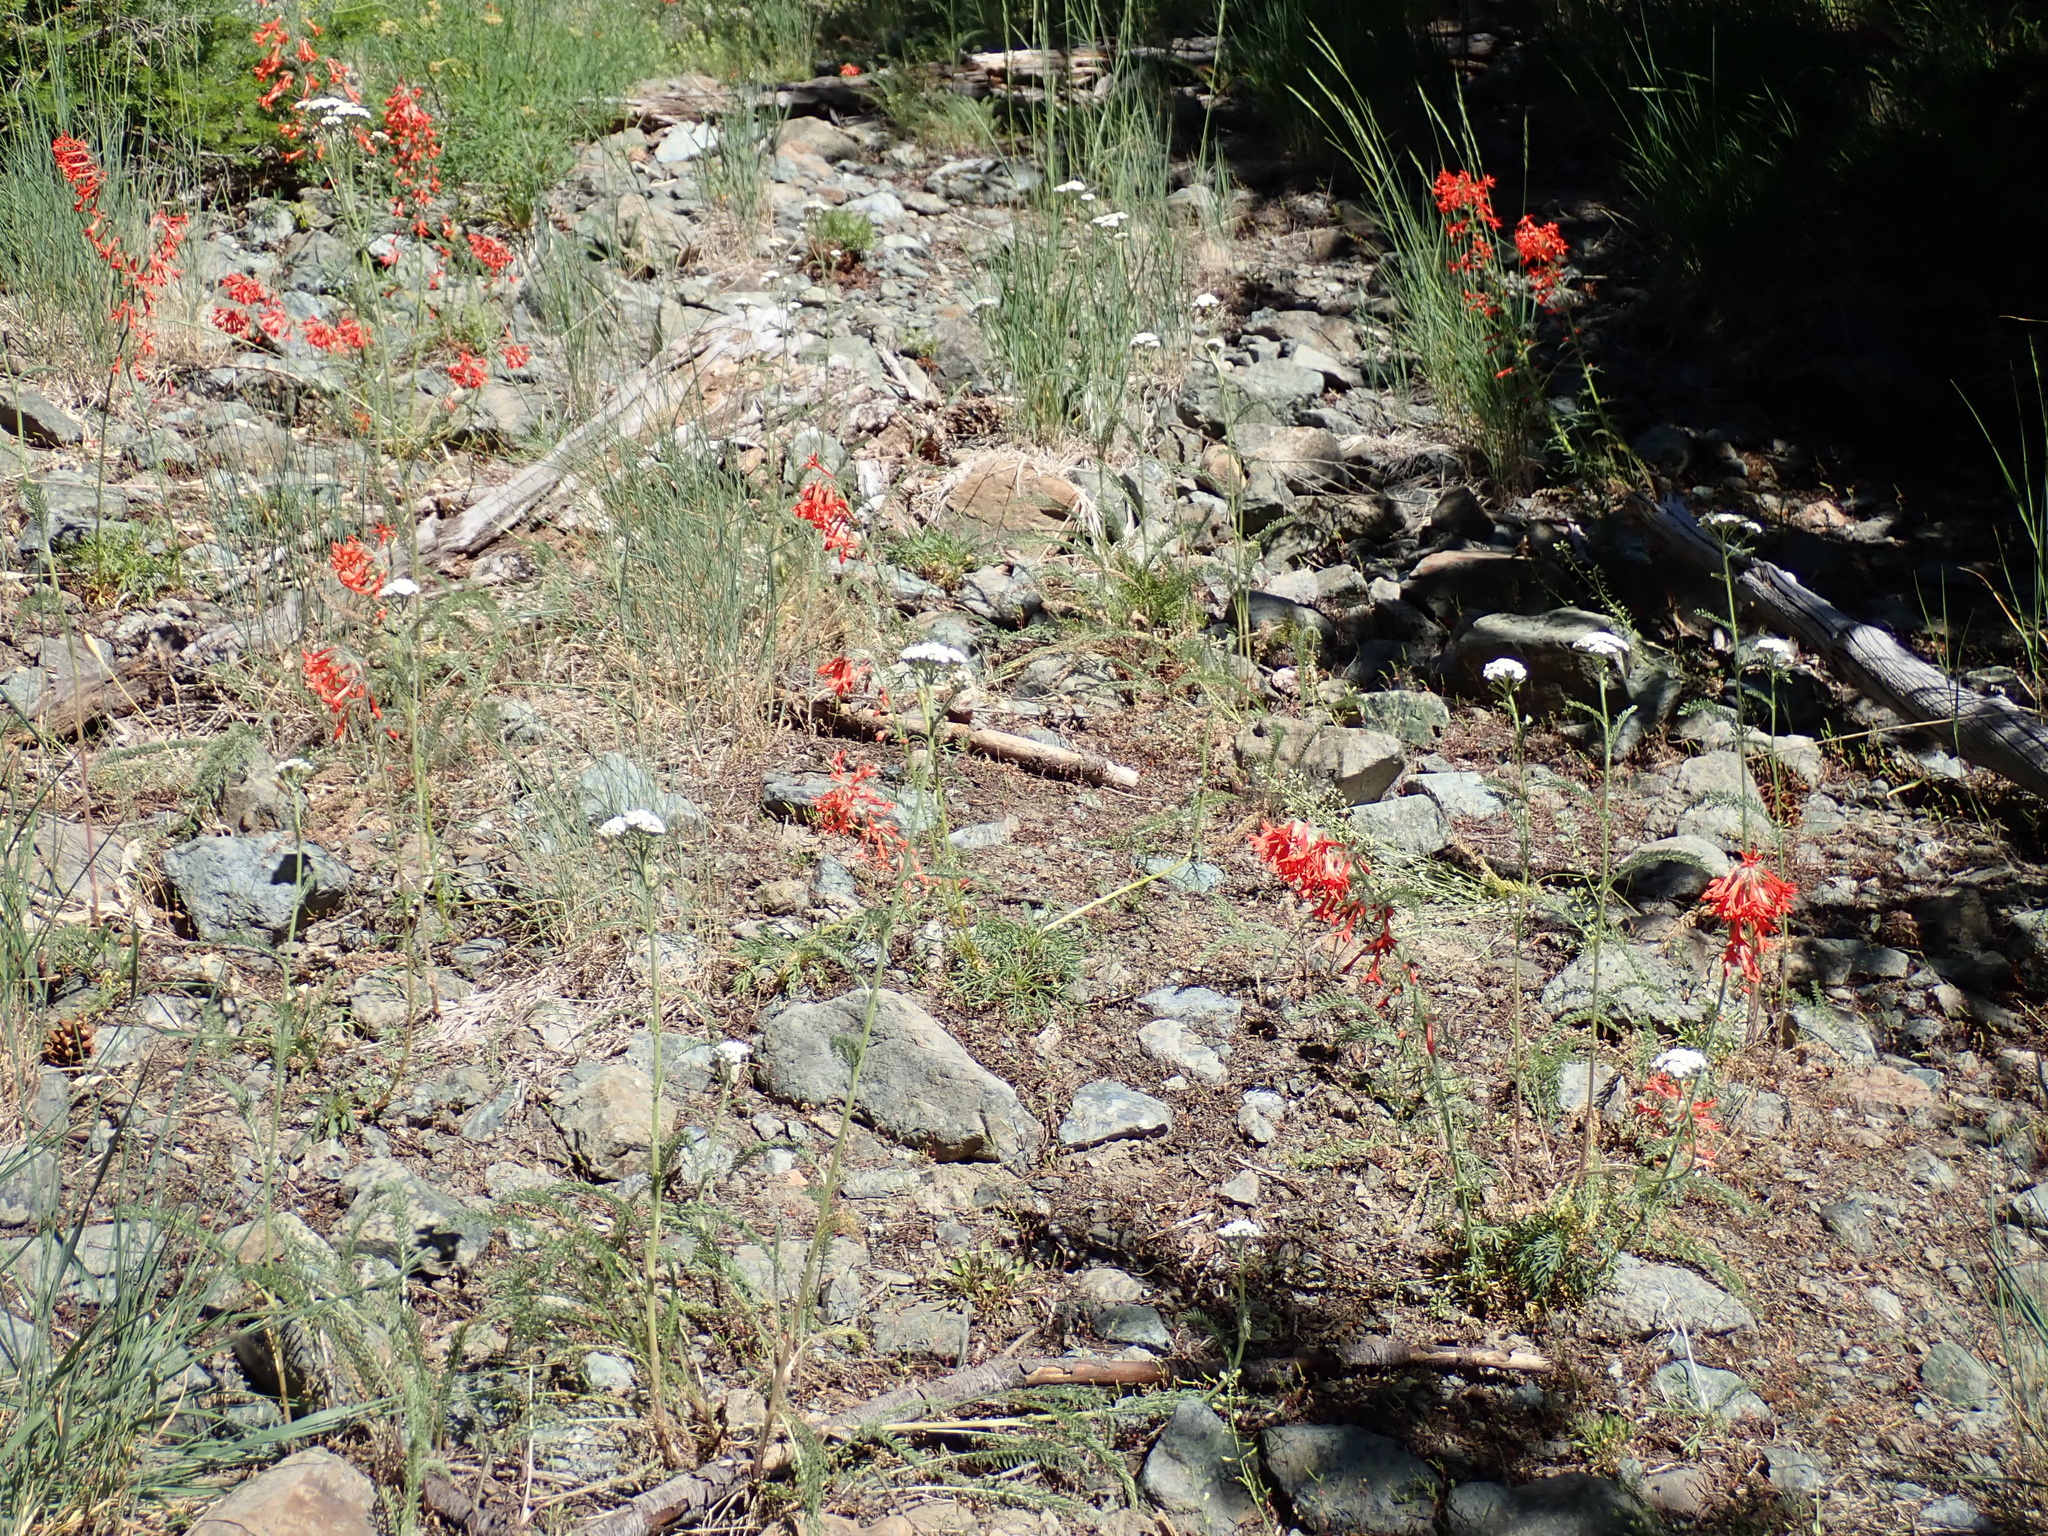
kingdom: Plantae
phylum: Tracheophyta
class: Magnoliopsida
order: Ericales
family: Polemoniaceae
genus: Ipomopsis
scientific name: Ipomopsis aggregata
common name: Scarlet gilia
